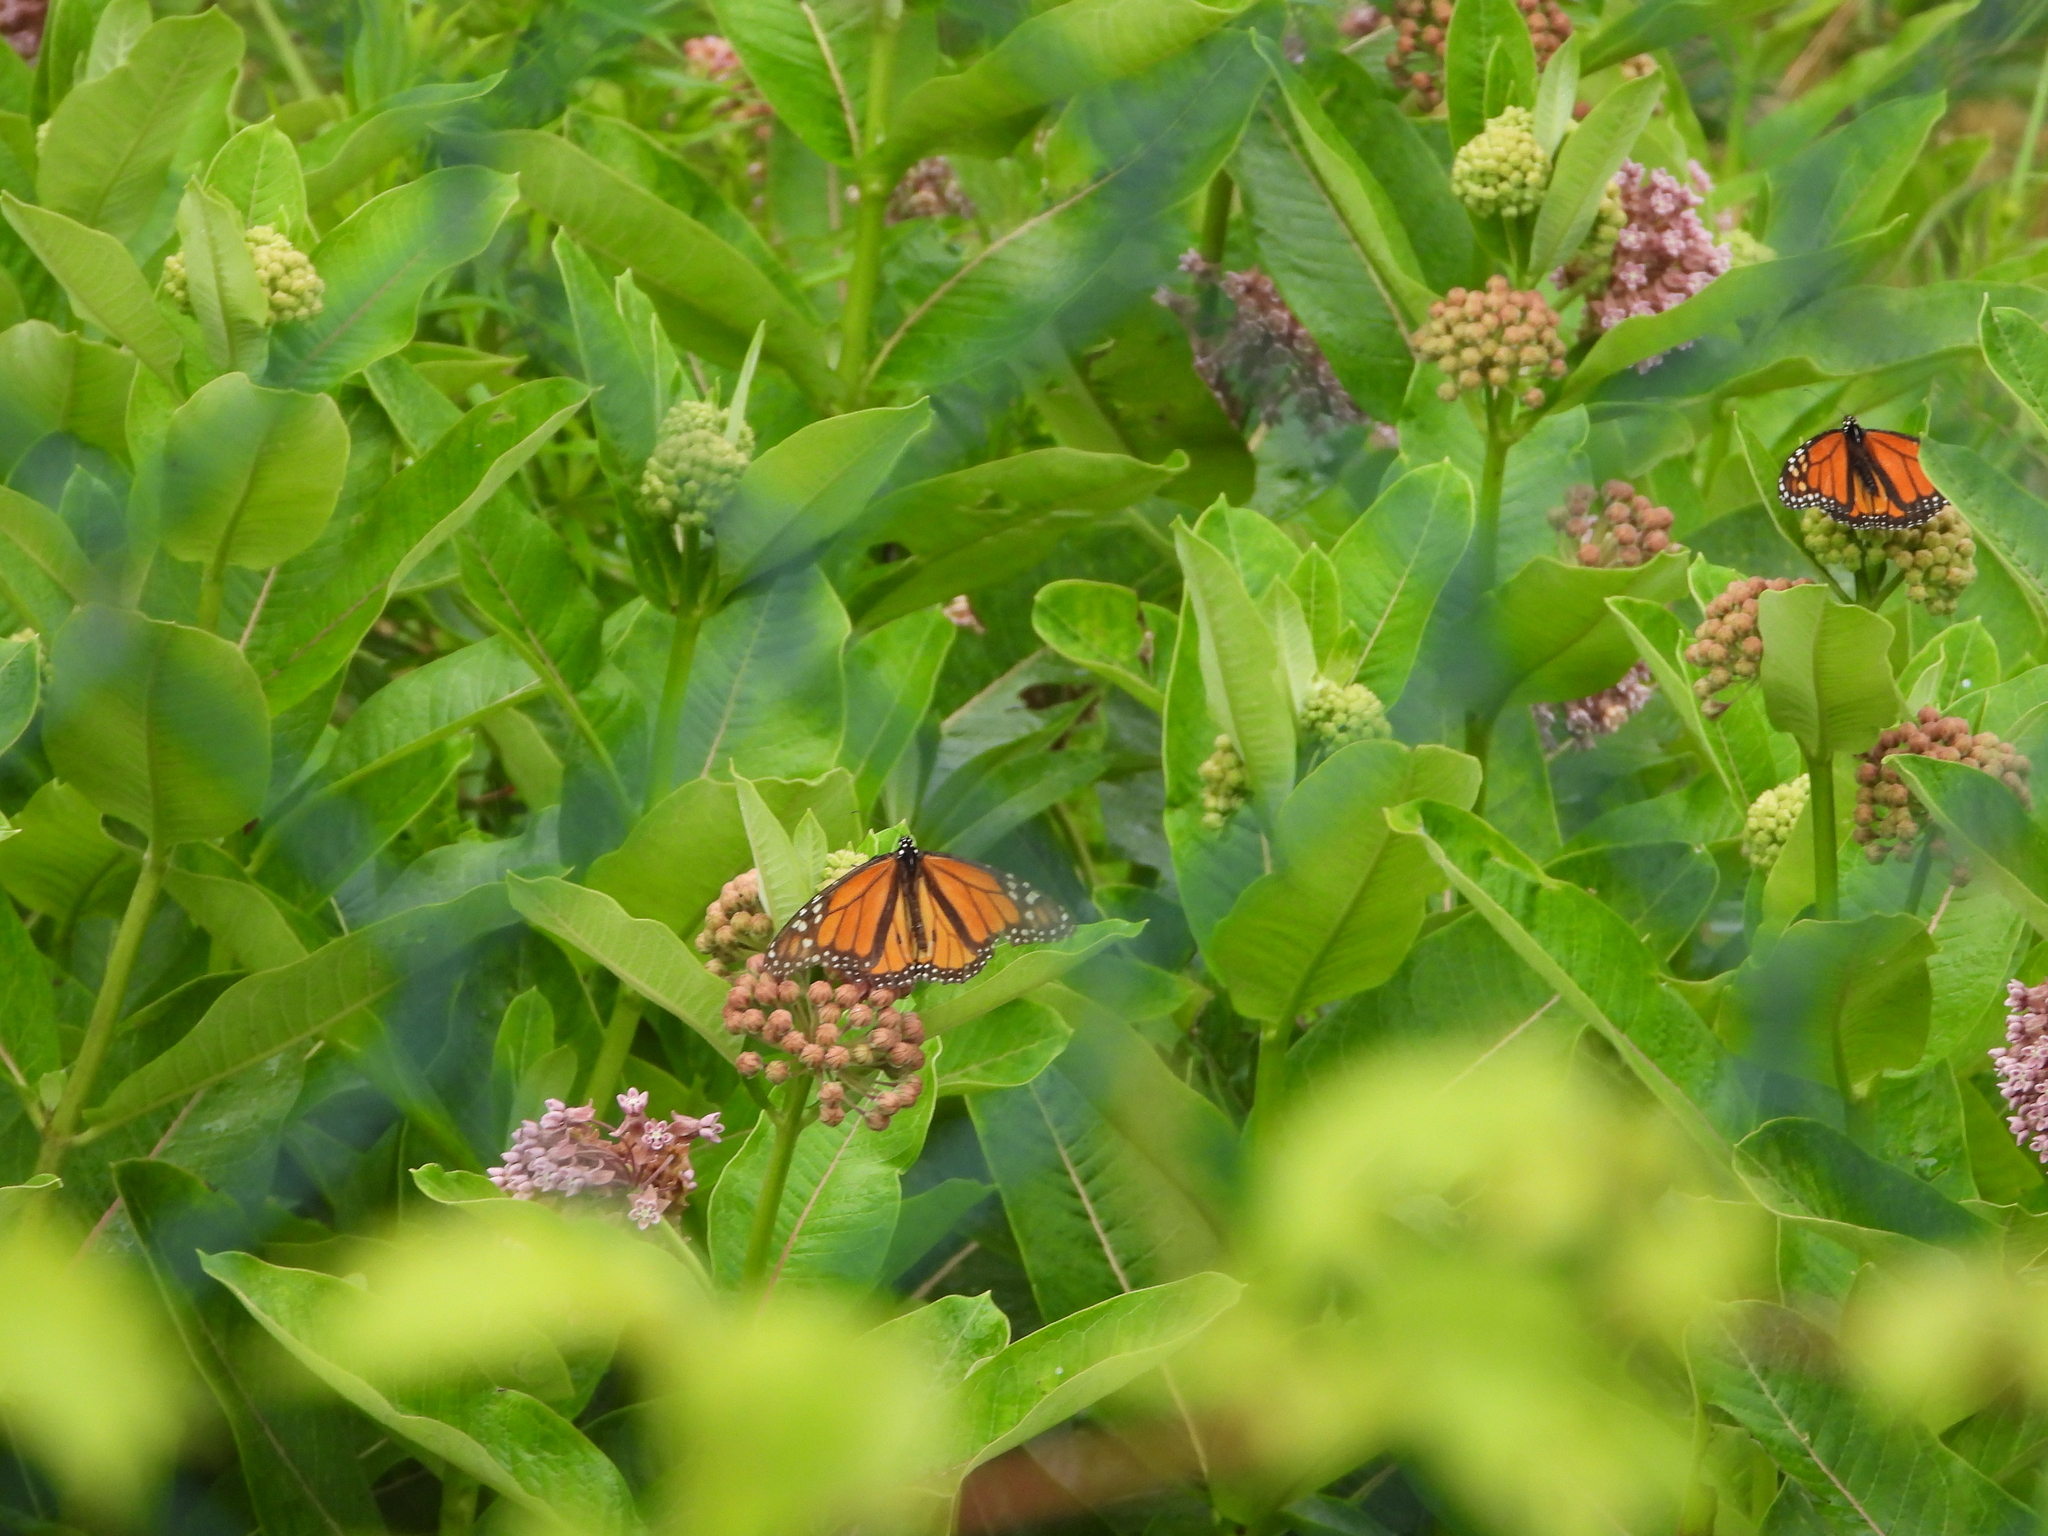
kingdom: Animalia
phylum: Arthropoda
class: Insecta
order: Lepidoptera
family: Nymphalidae
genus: Danaus
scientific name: Danaus plexippus
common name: Monarch
